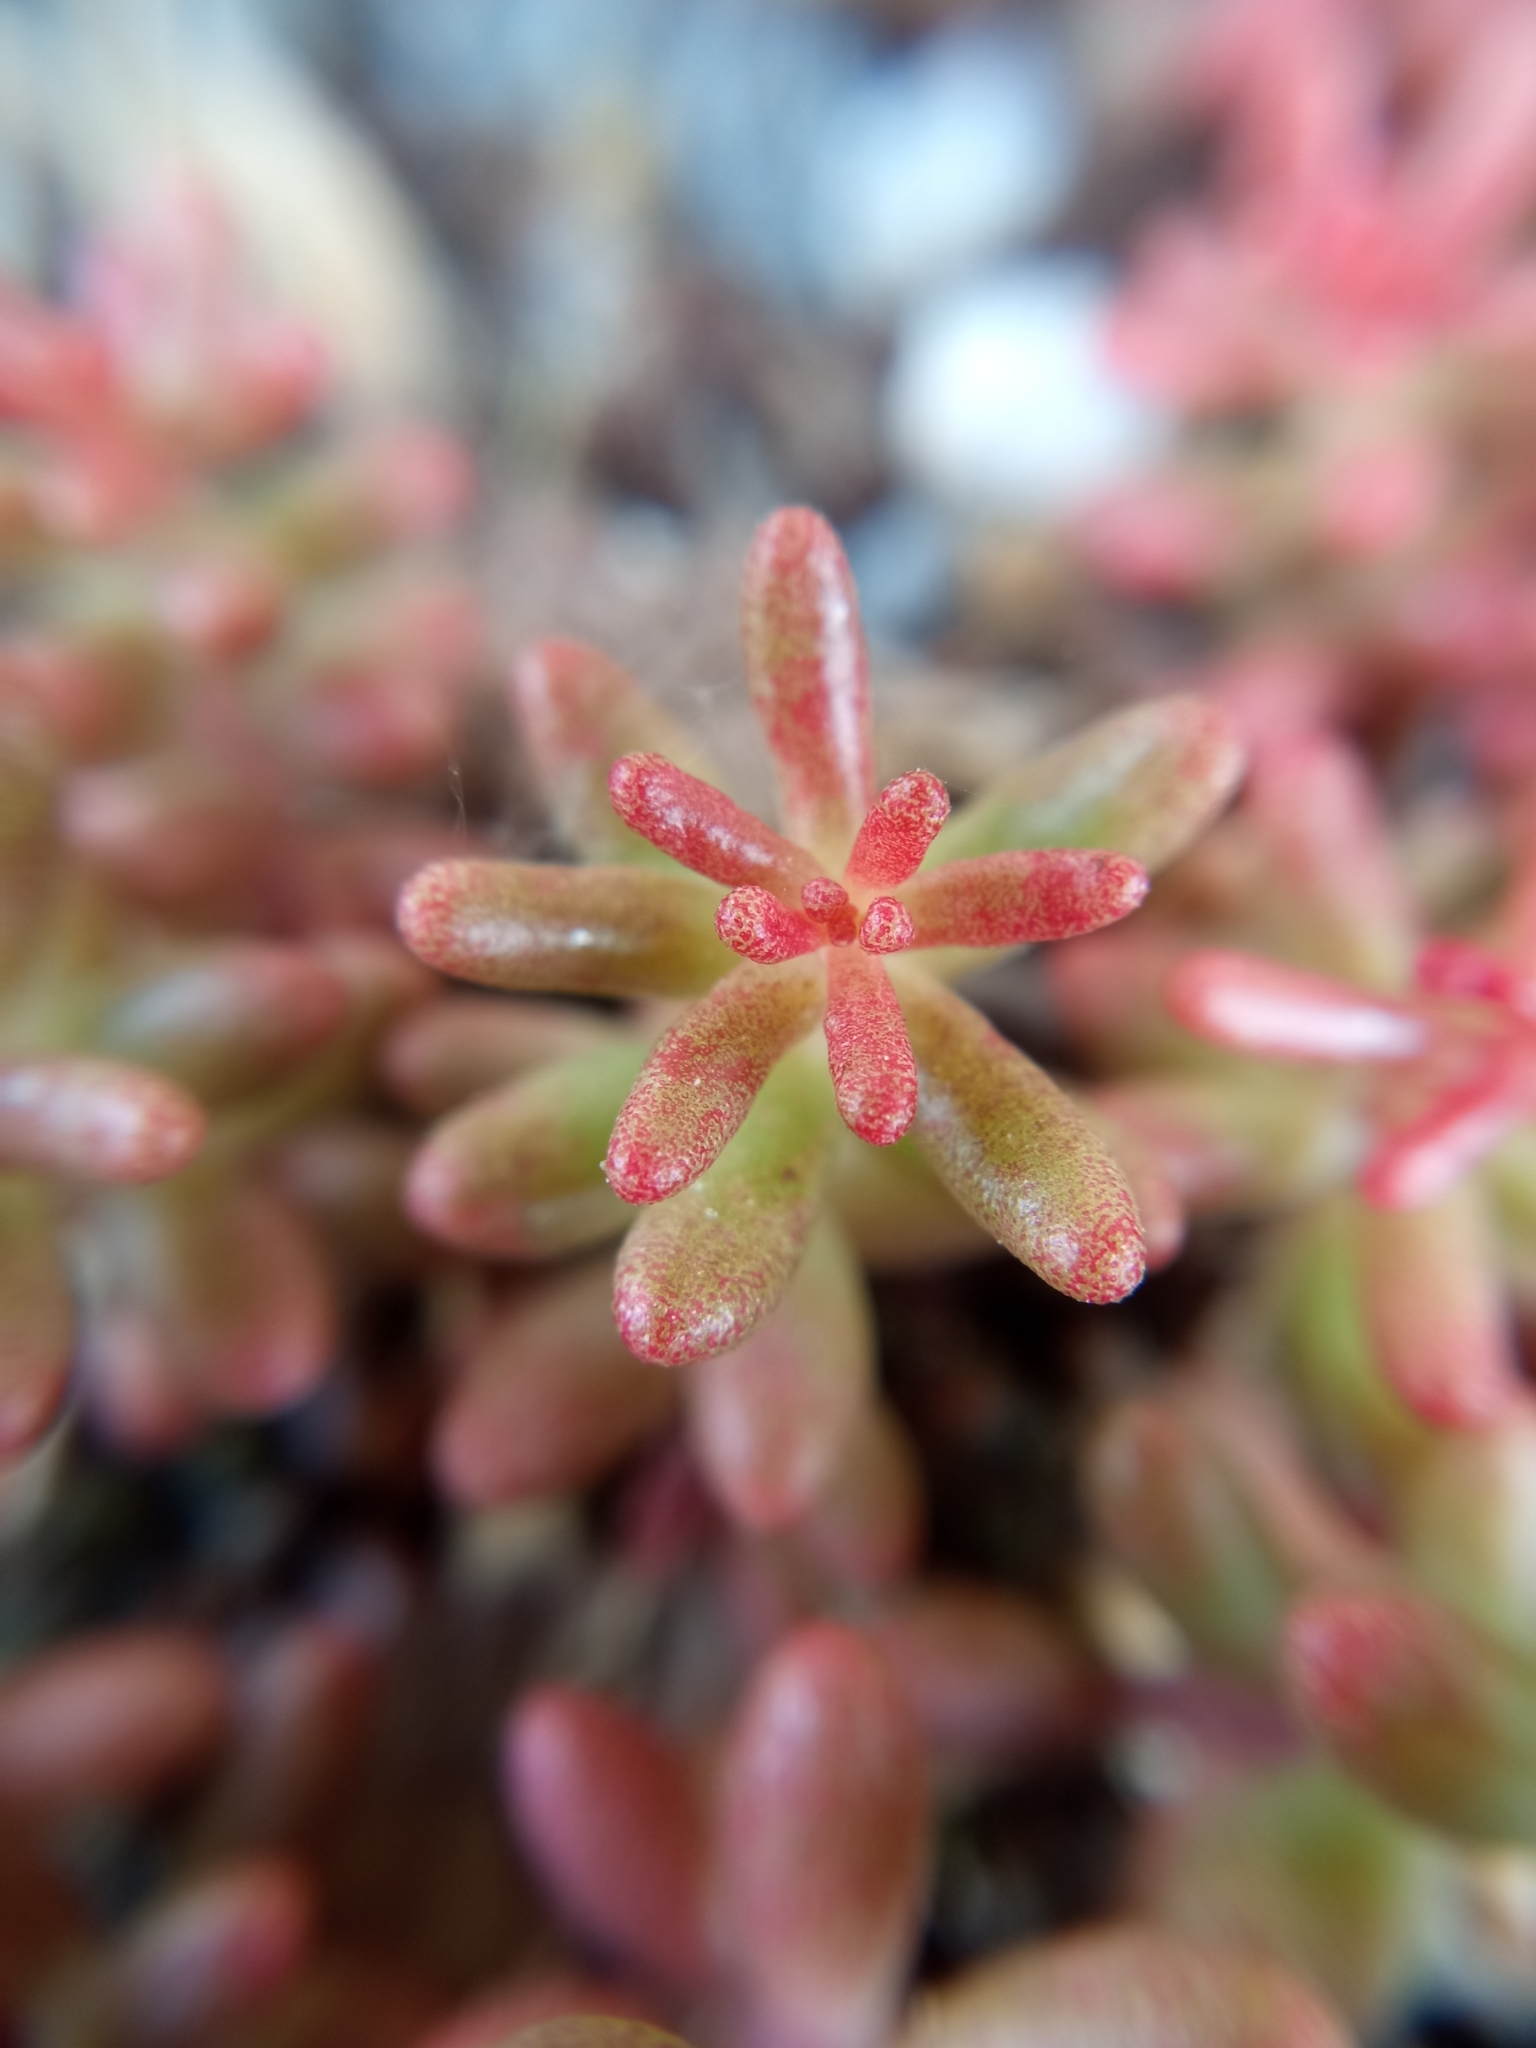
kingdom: Plantae
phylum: Tracheophyta
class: Magnoliopsida
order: Saxifragales
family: Crassulaceae
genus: Sedum
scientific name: Sedum album
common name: White stonecrop
